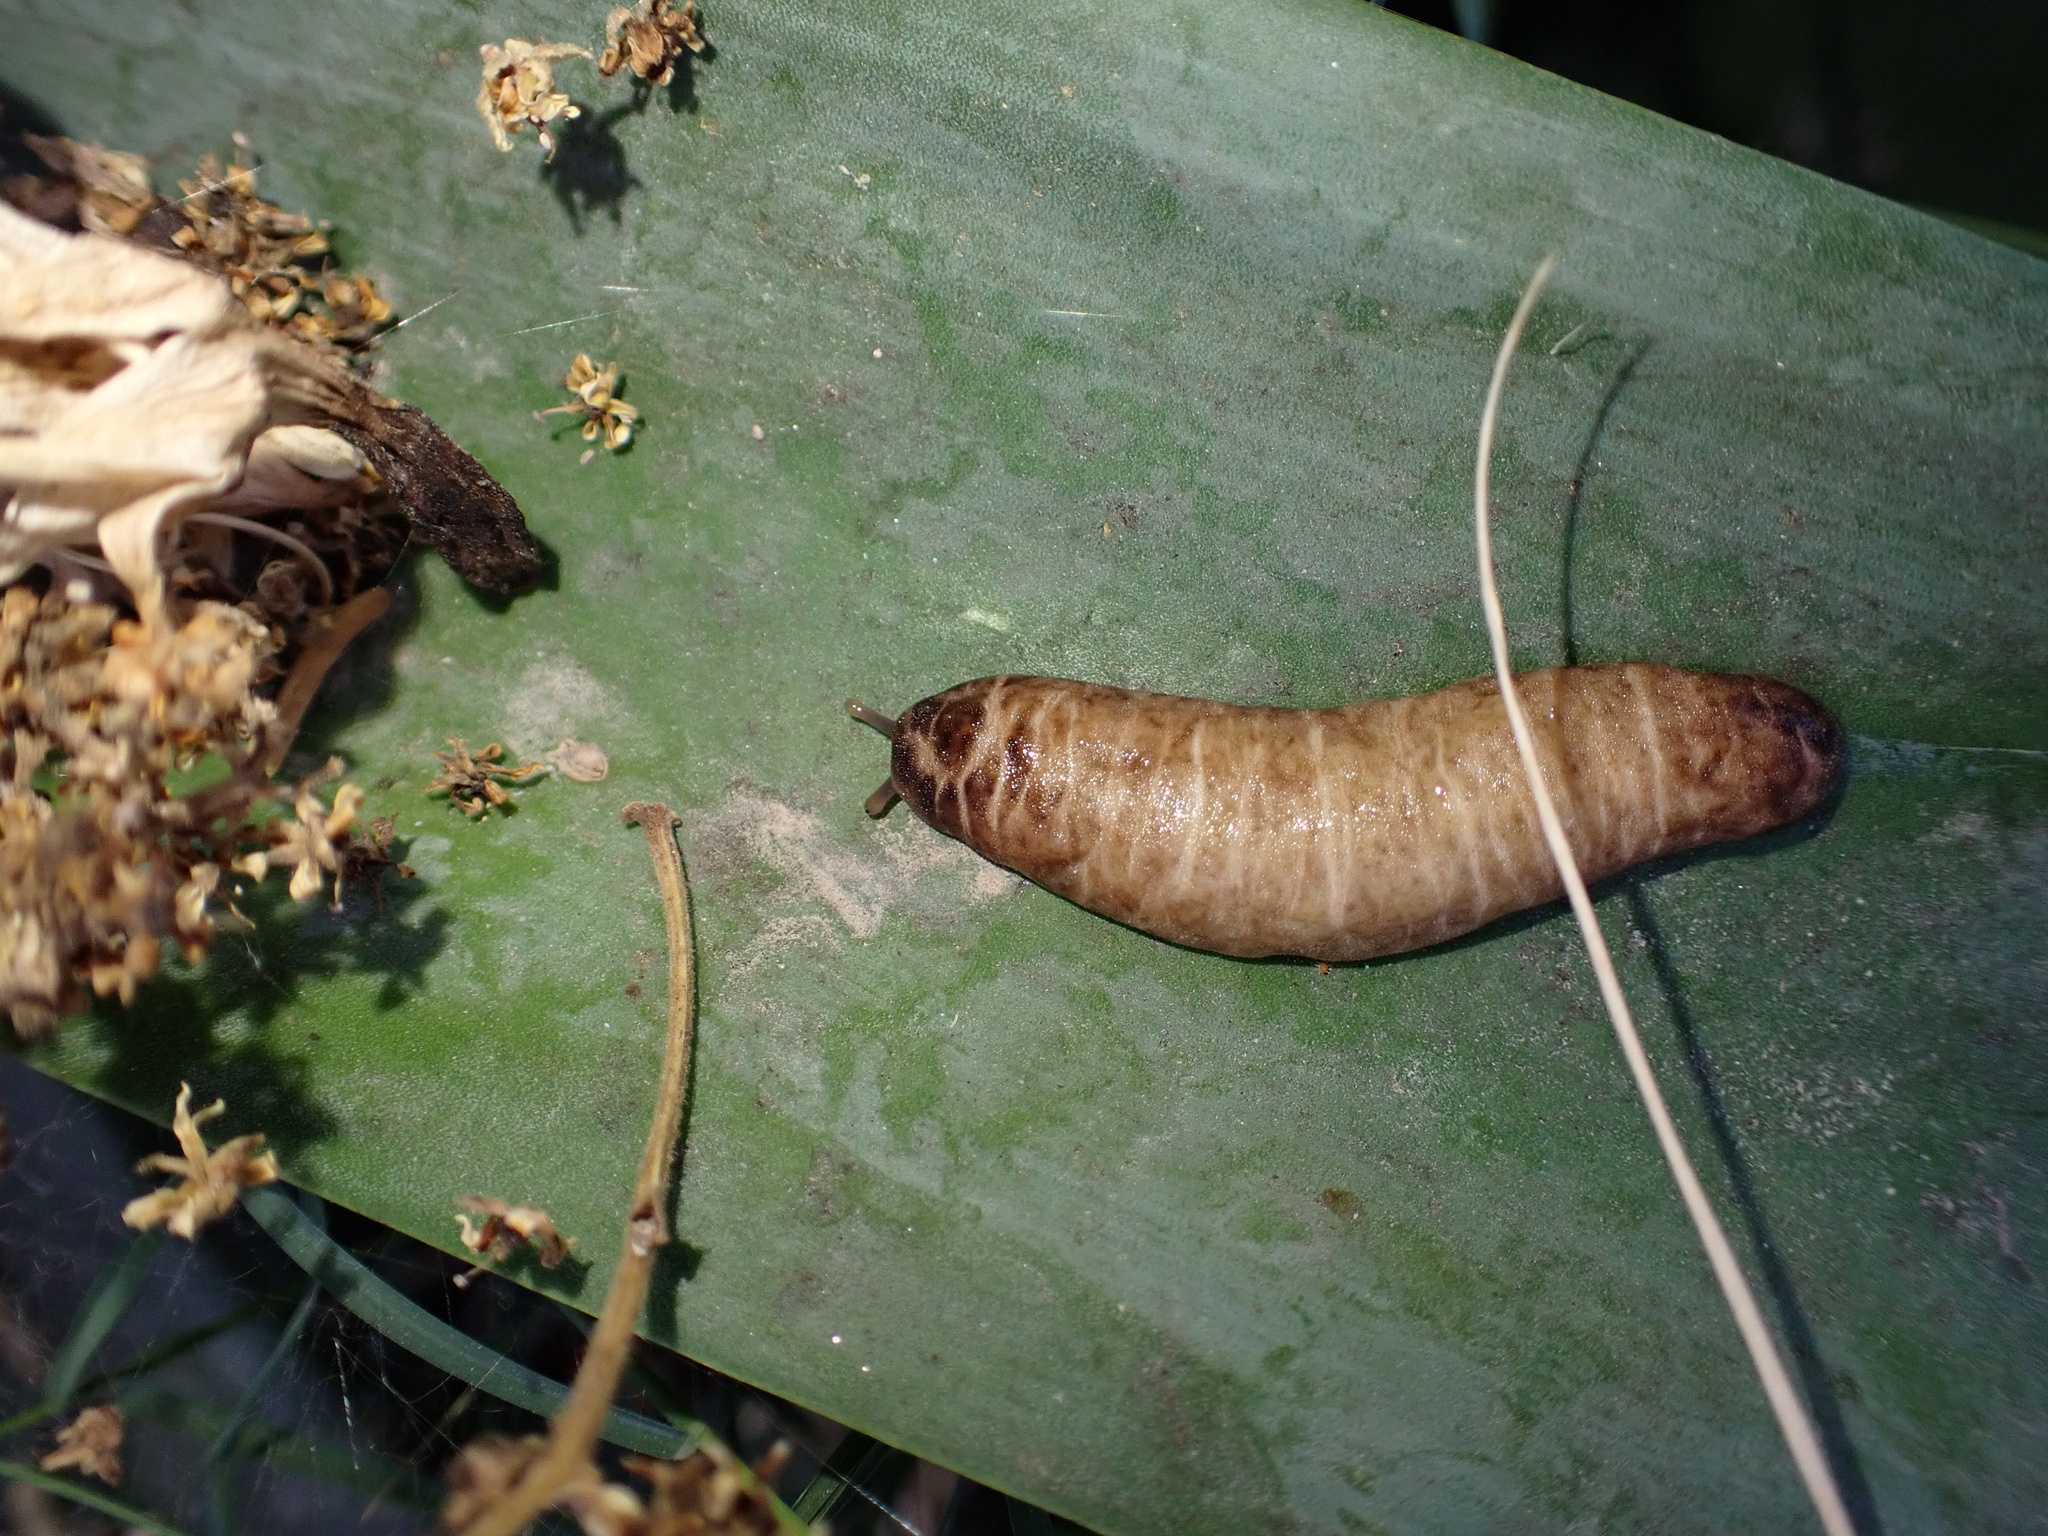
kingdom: Animalia
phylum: Mollusca
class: Gastropoda
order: Systellommatophora
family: Veronicellidae
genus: Laevicaulis
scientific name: Laevicaulis haroldi
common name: Caterpillar slug
